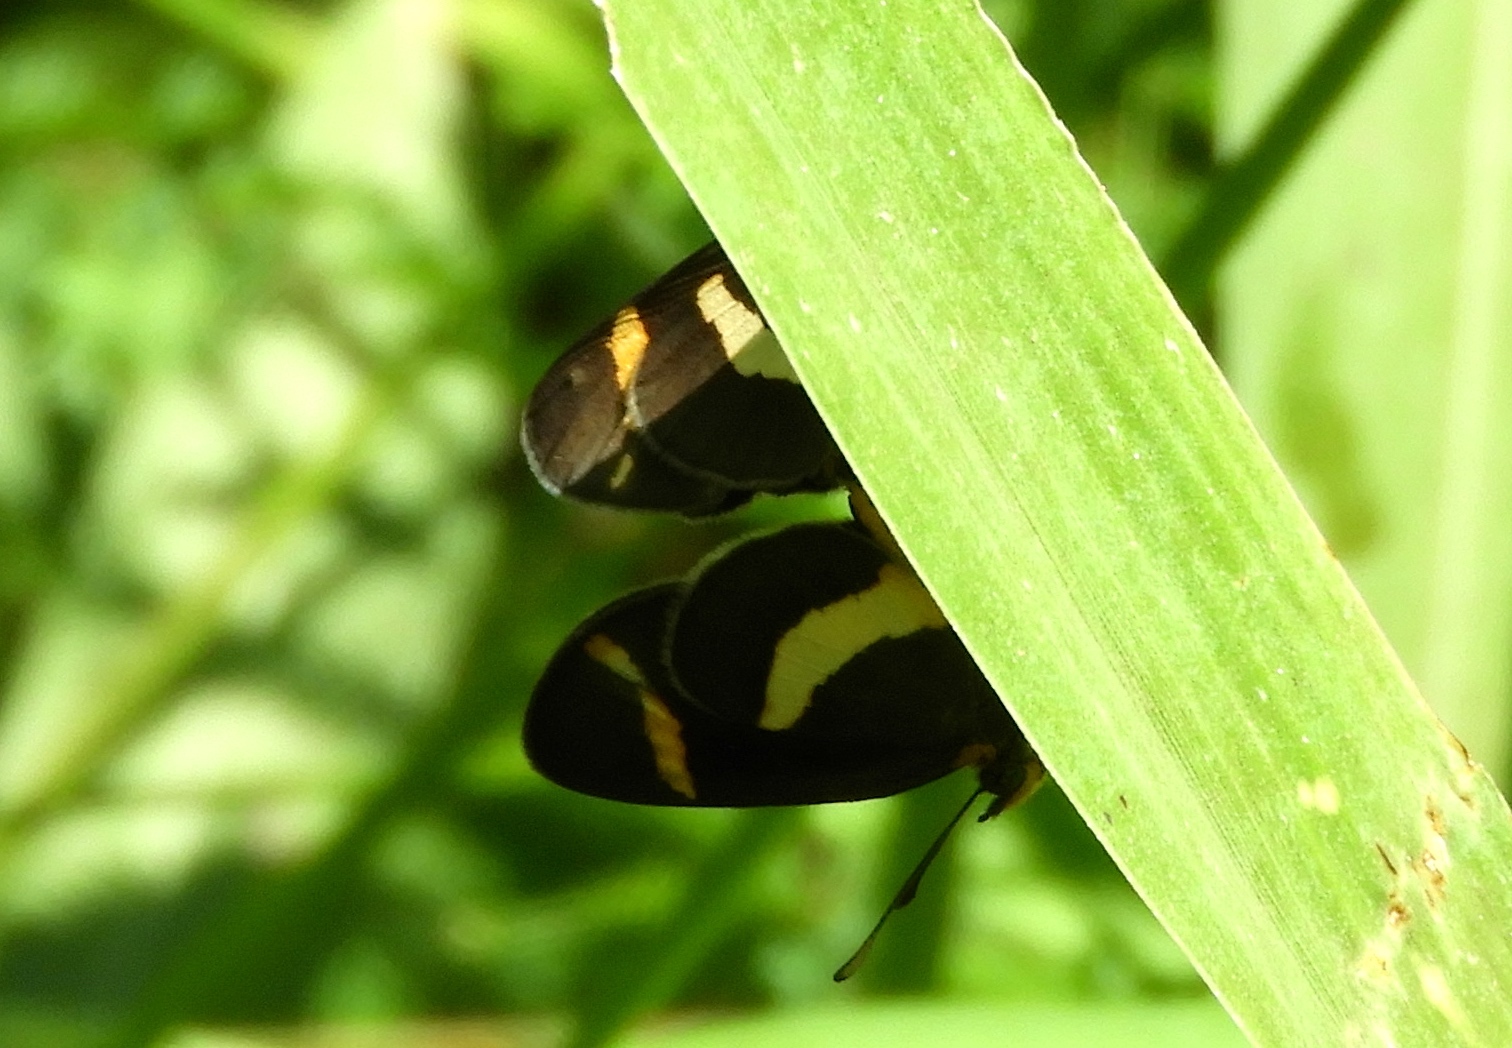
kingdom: Animalia
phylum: Arthropoda
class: Insecta
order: Lepidoptera
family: Nymphalidae
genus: Microtia
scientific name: Microtia elva
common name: Elf
